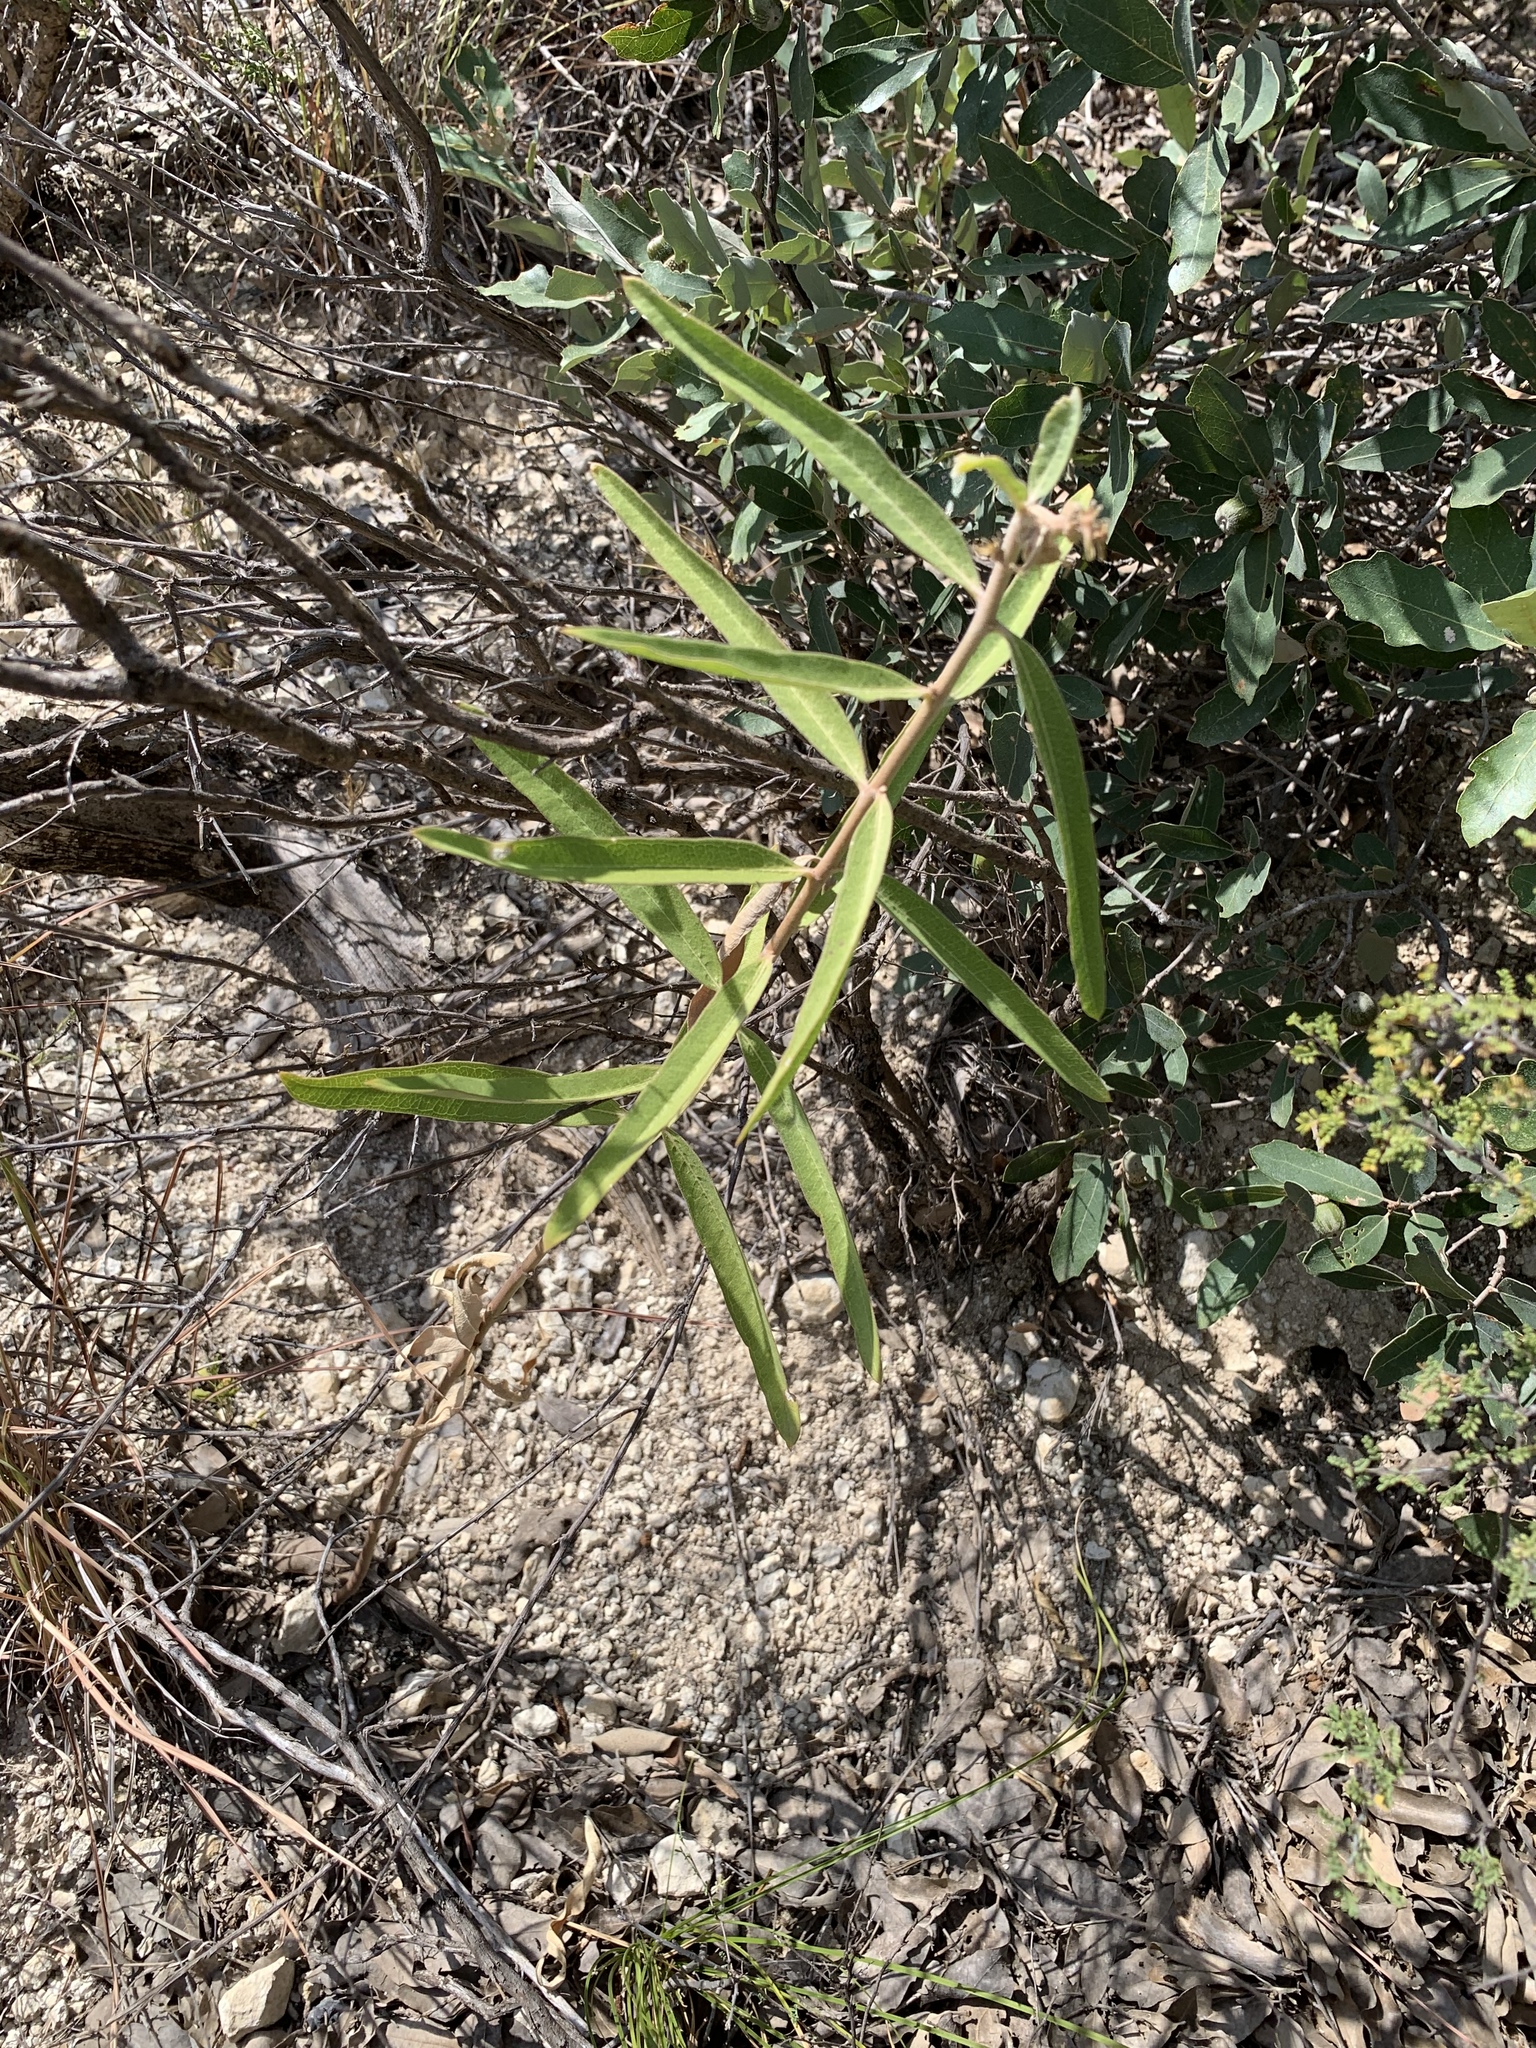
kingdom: Plantae
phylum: Tracheophyta
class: Magnoliopsida
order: Gentianales
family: Apocynaceae
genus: Asclepias
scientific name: Asclepias viridiflora
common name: Green comet milkweed
